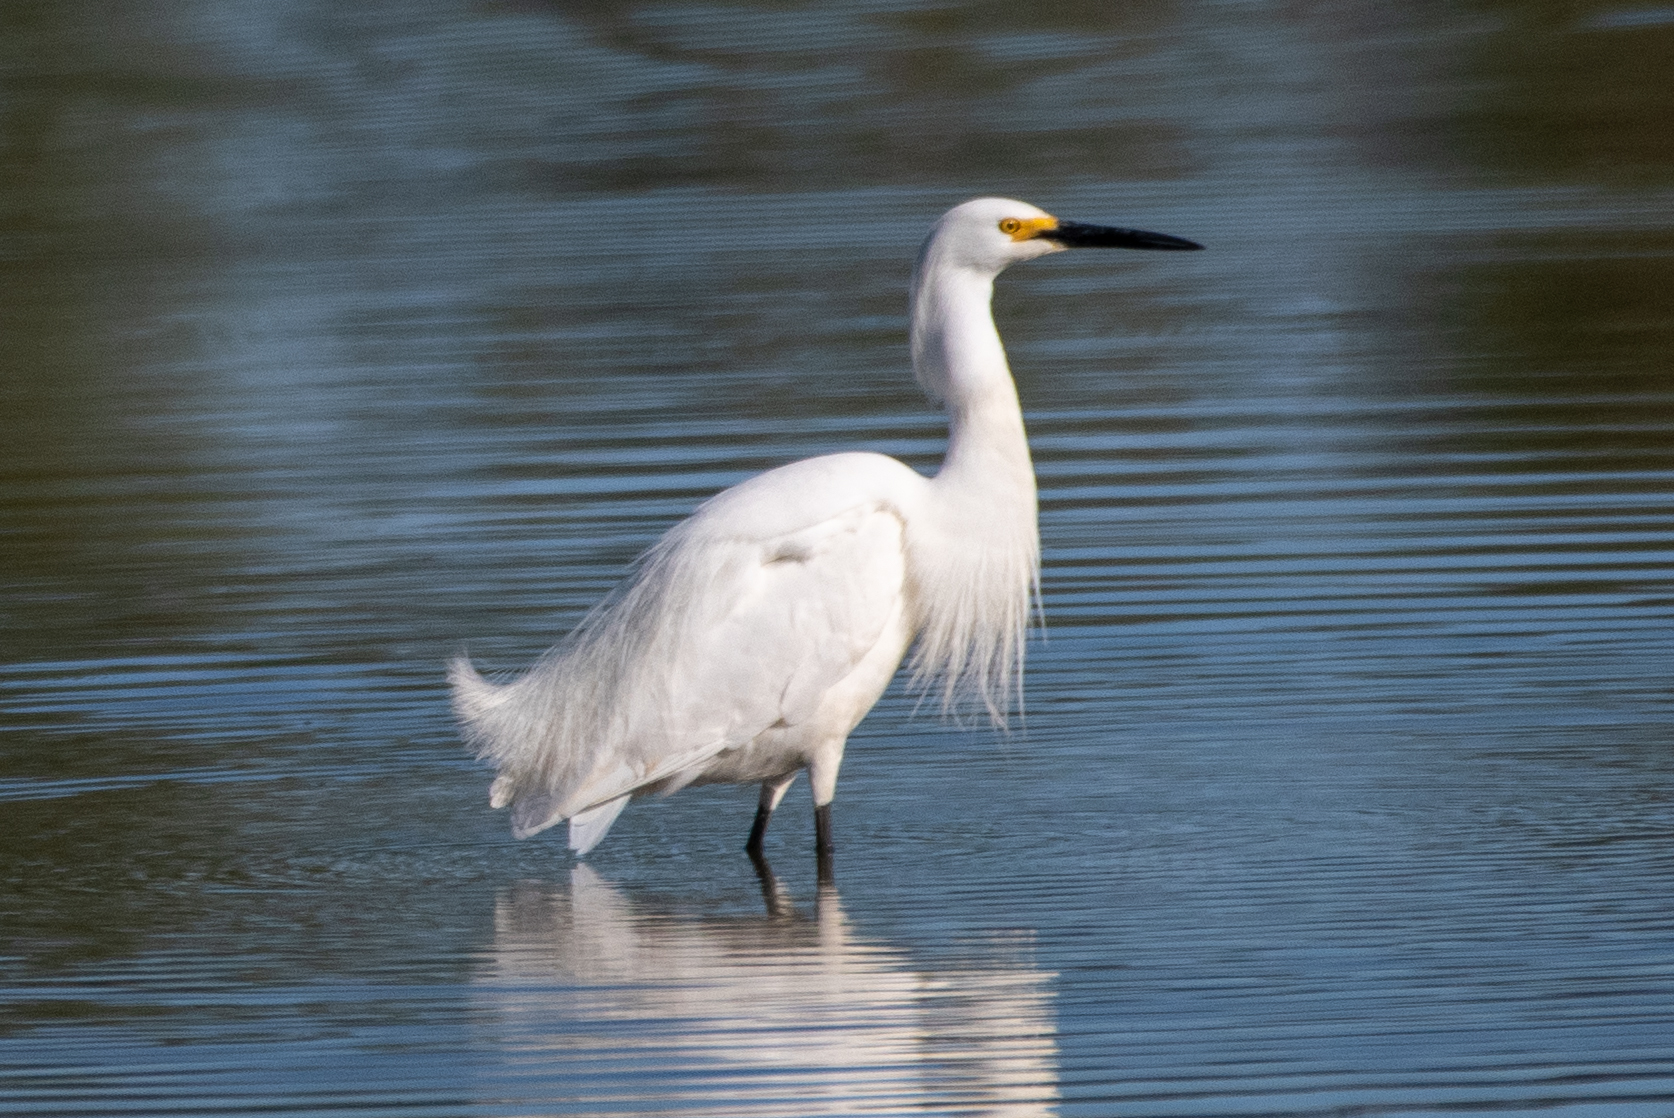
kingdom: Animalia
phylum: Chordata
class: Aves
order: Pelecaniformes
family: Ardeidae
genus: Egretta
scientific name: Egretta thula
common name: Snowy egret
